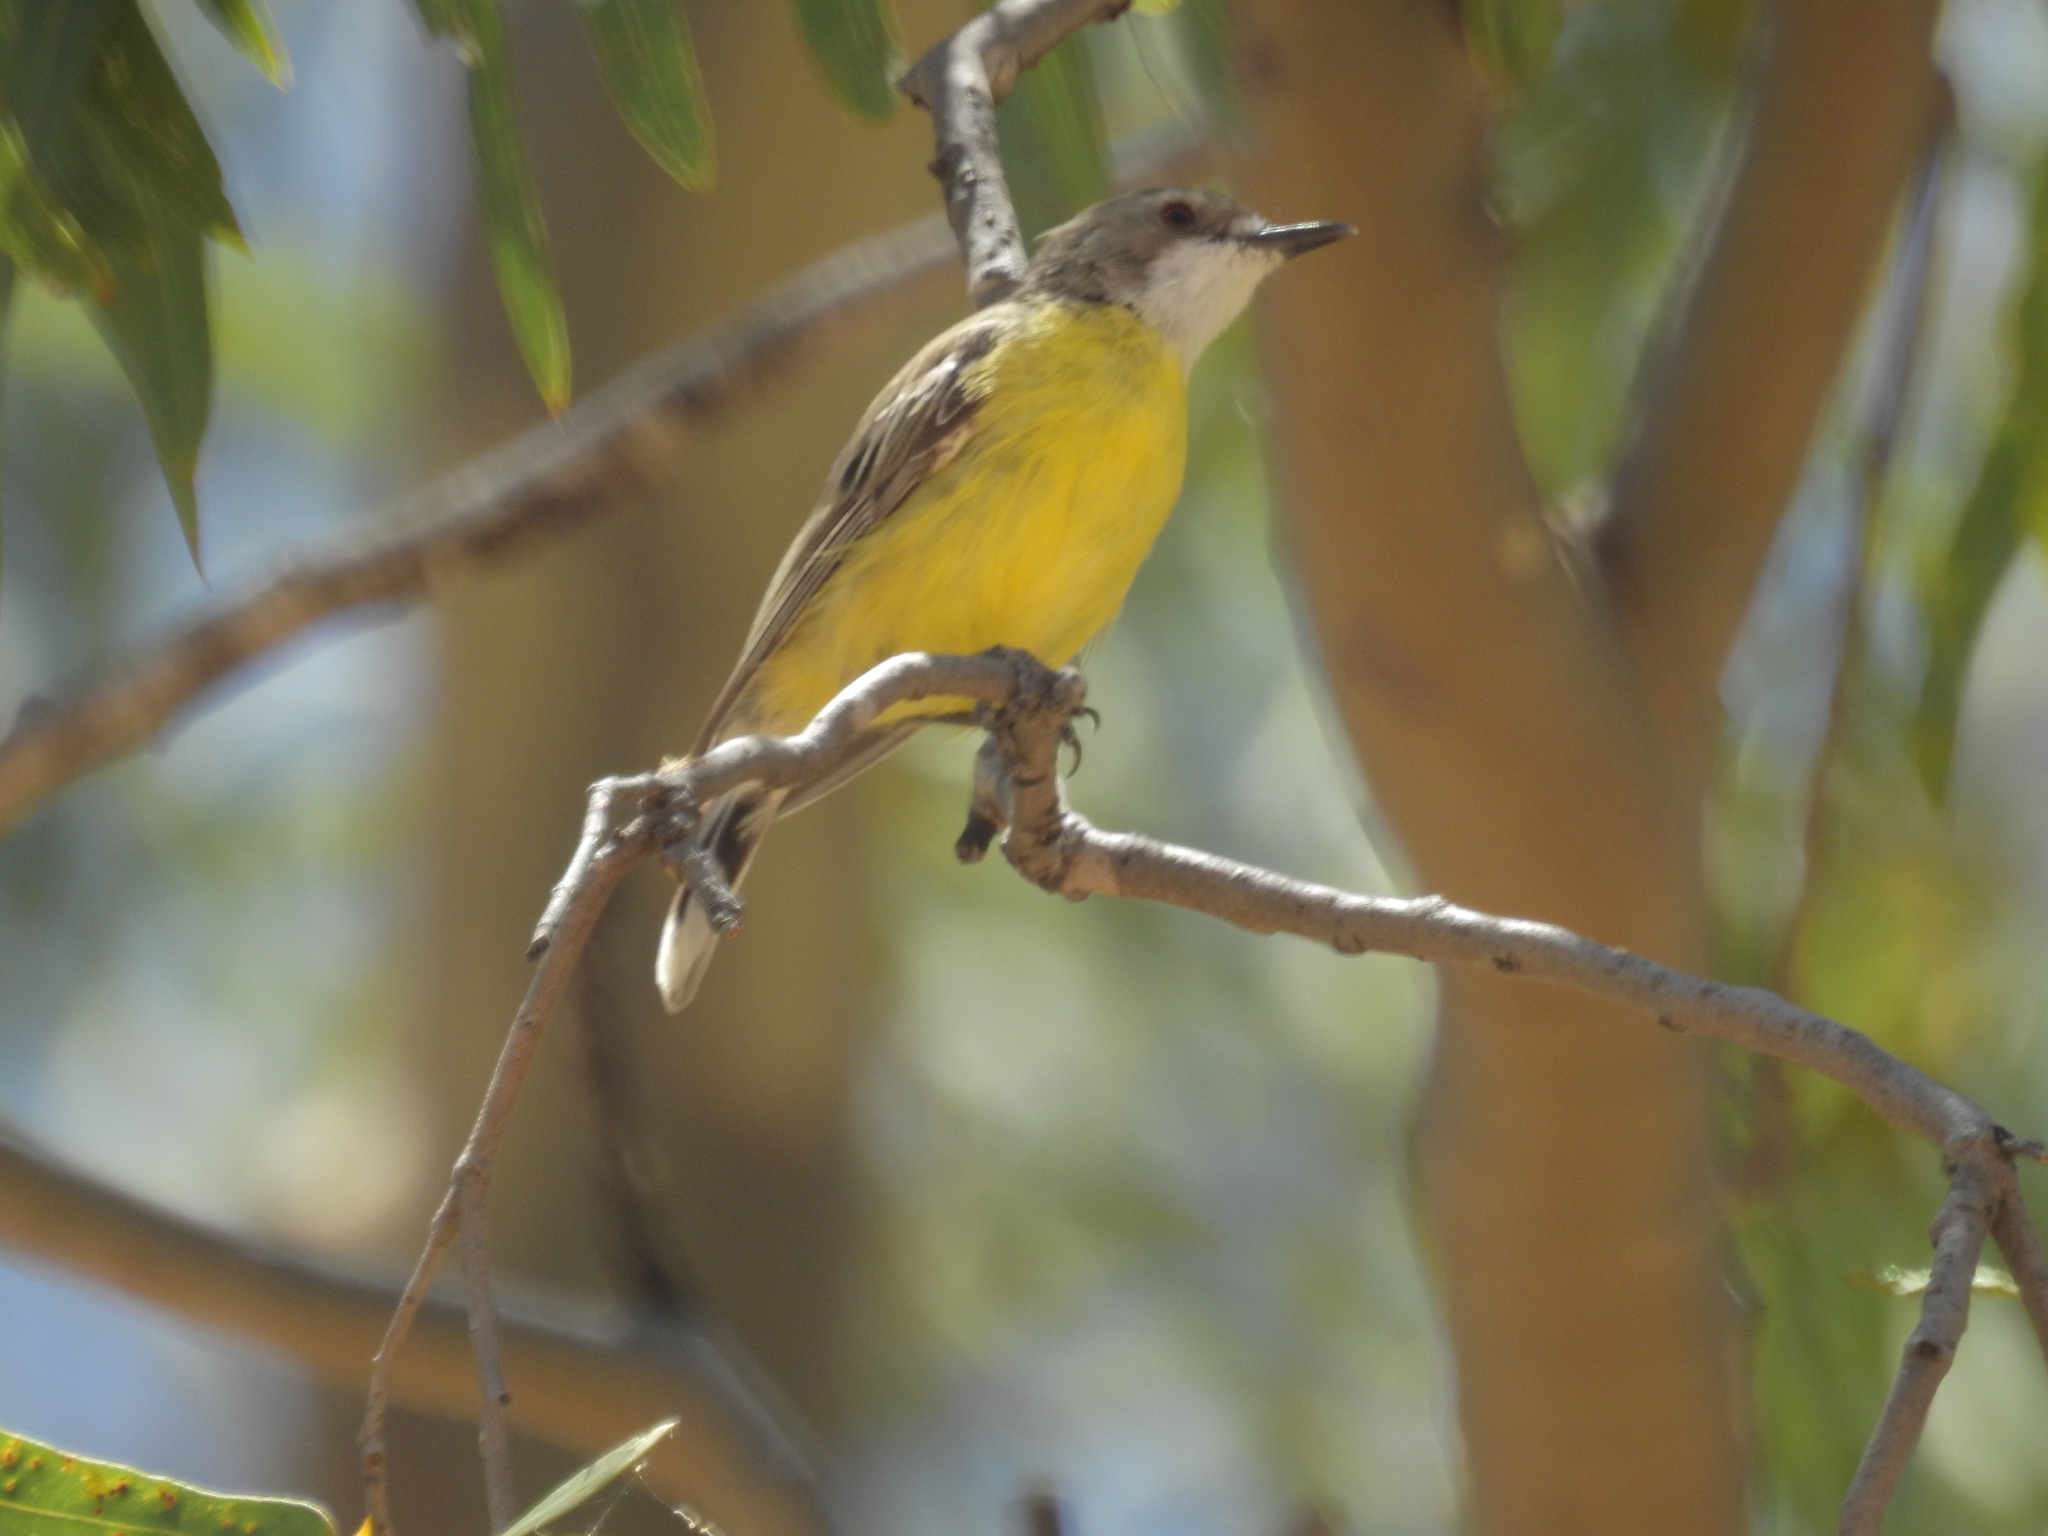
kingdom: Animalia
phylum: Chordata
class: Aves
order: Passeriformes
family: Acanthizidae
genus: Gerygone
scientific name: Gerygone olivacea
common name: White-throated gerygone
